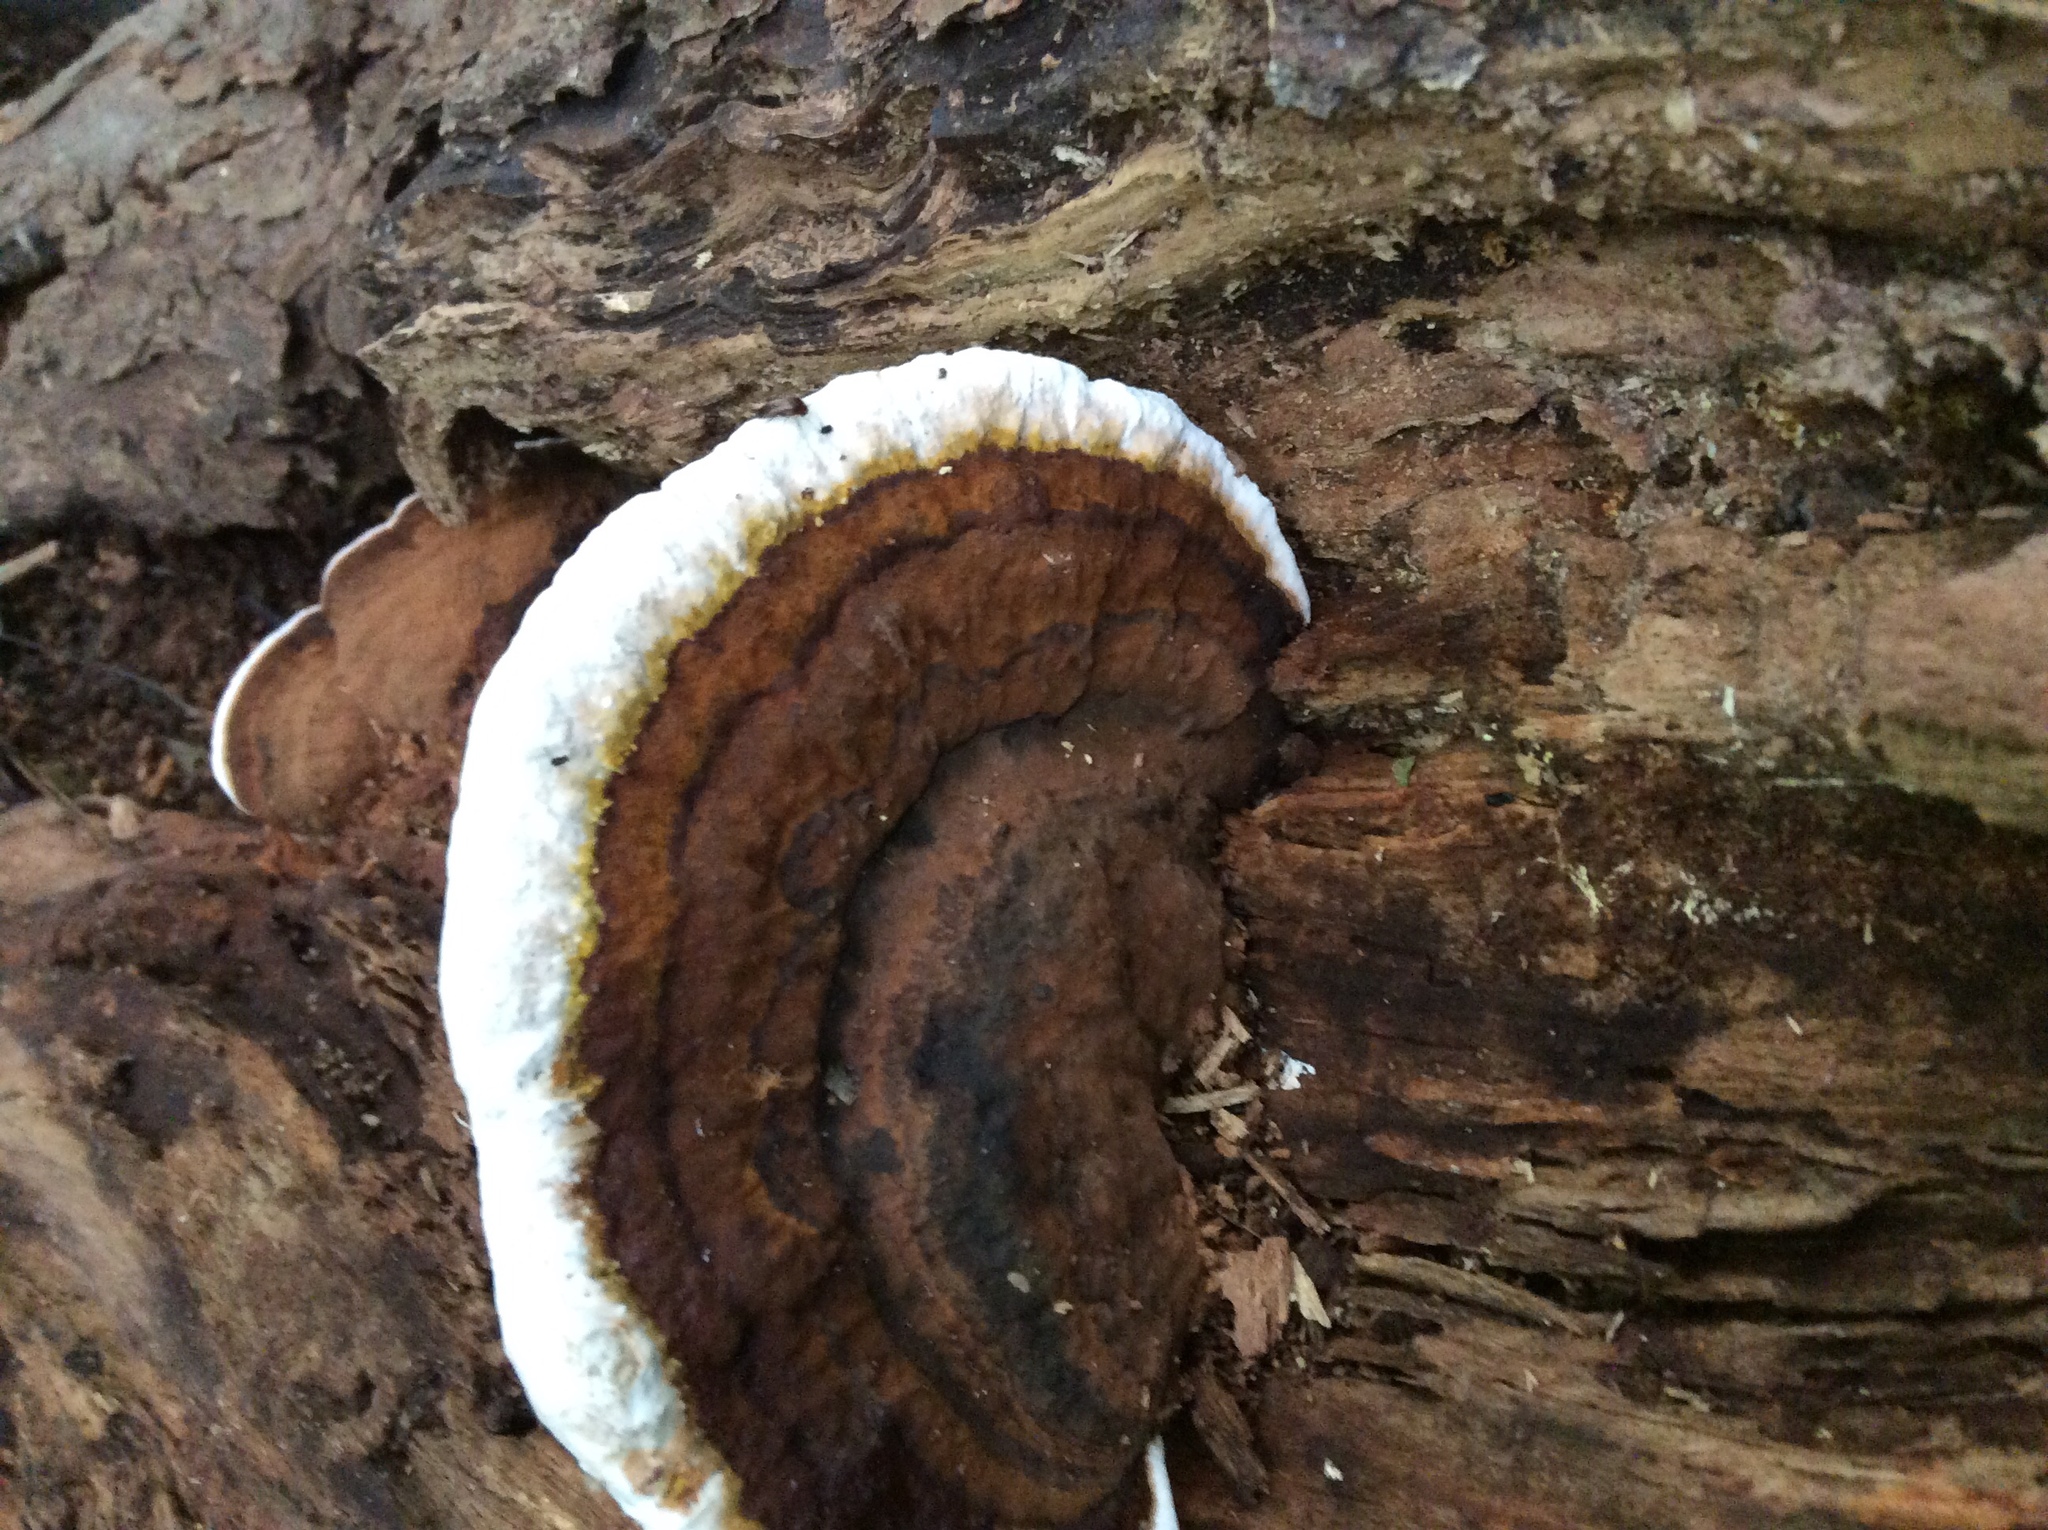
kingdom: Fungi
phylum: Basidiomycota
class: Agaricomycetes
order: Polyporales
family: Polyporaceae
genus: Ganoderma
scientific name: Ganoderma applanatum
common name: Artist's bracket
